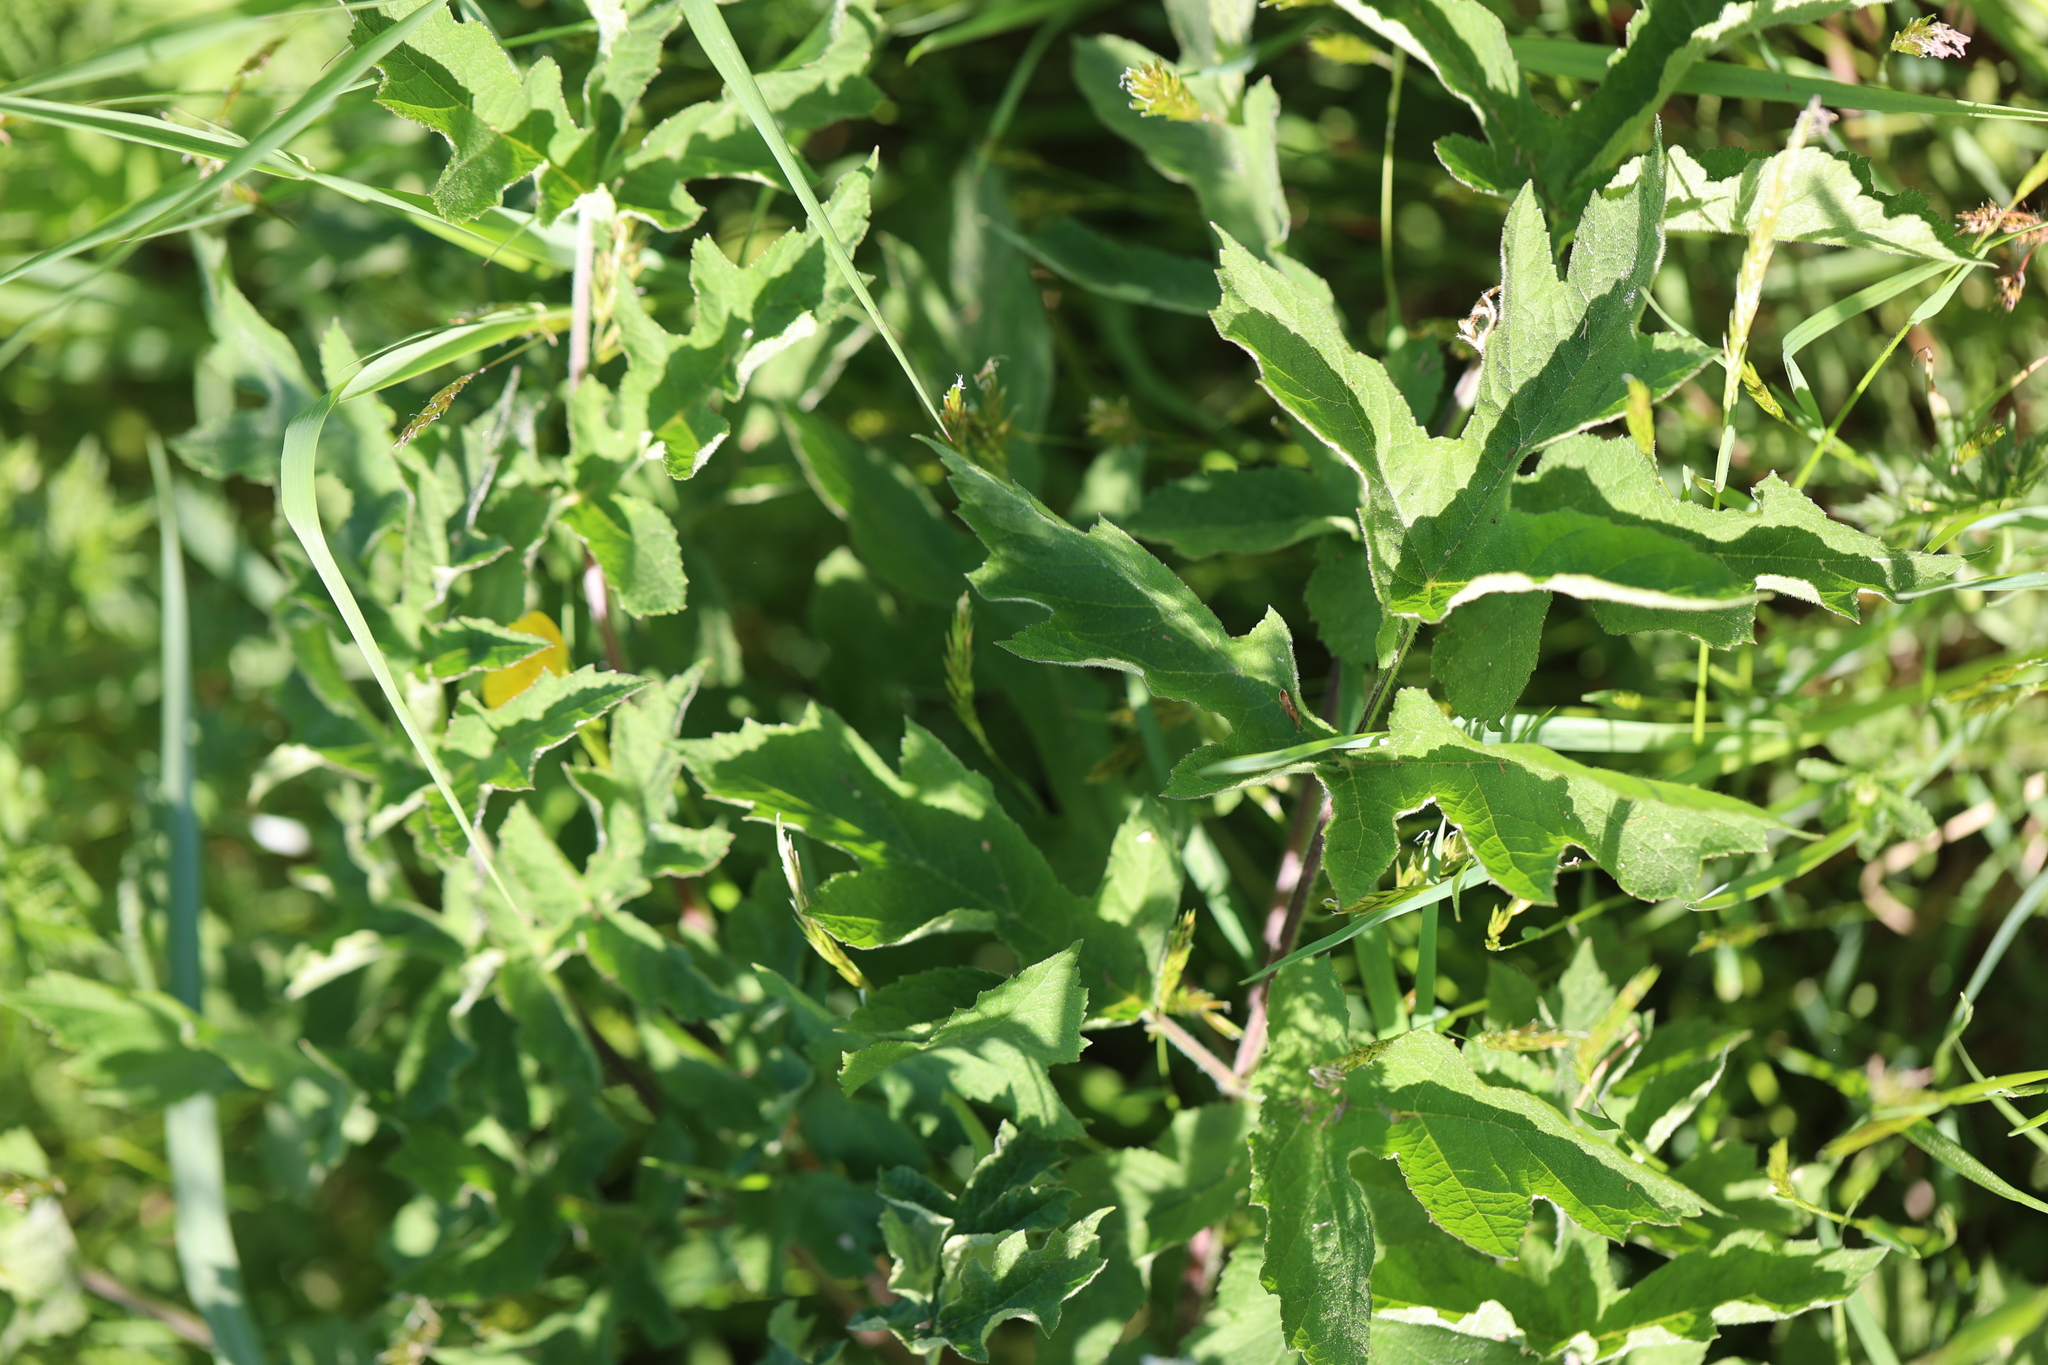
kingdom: Plantae
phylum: Tracheophyta
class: Magnoliopsida
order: Apiales
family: Apiaceae
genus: Heracleum
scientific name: Heracleum sphondylium
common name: Hogweed
